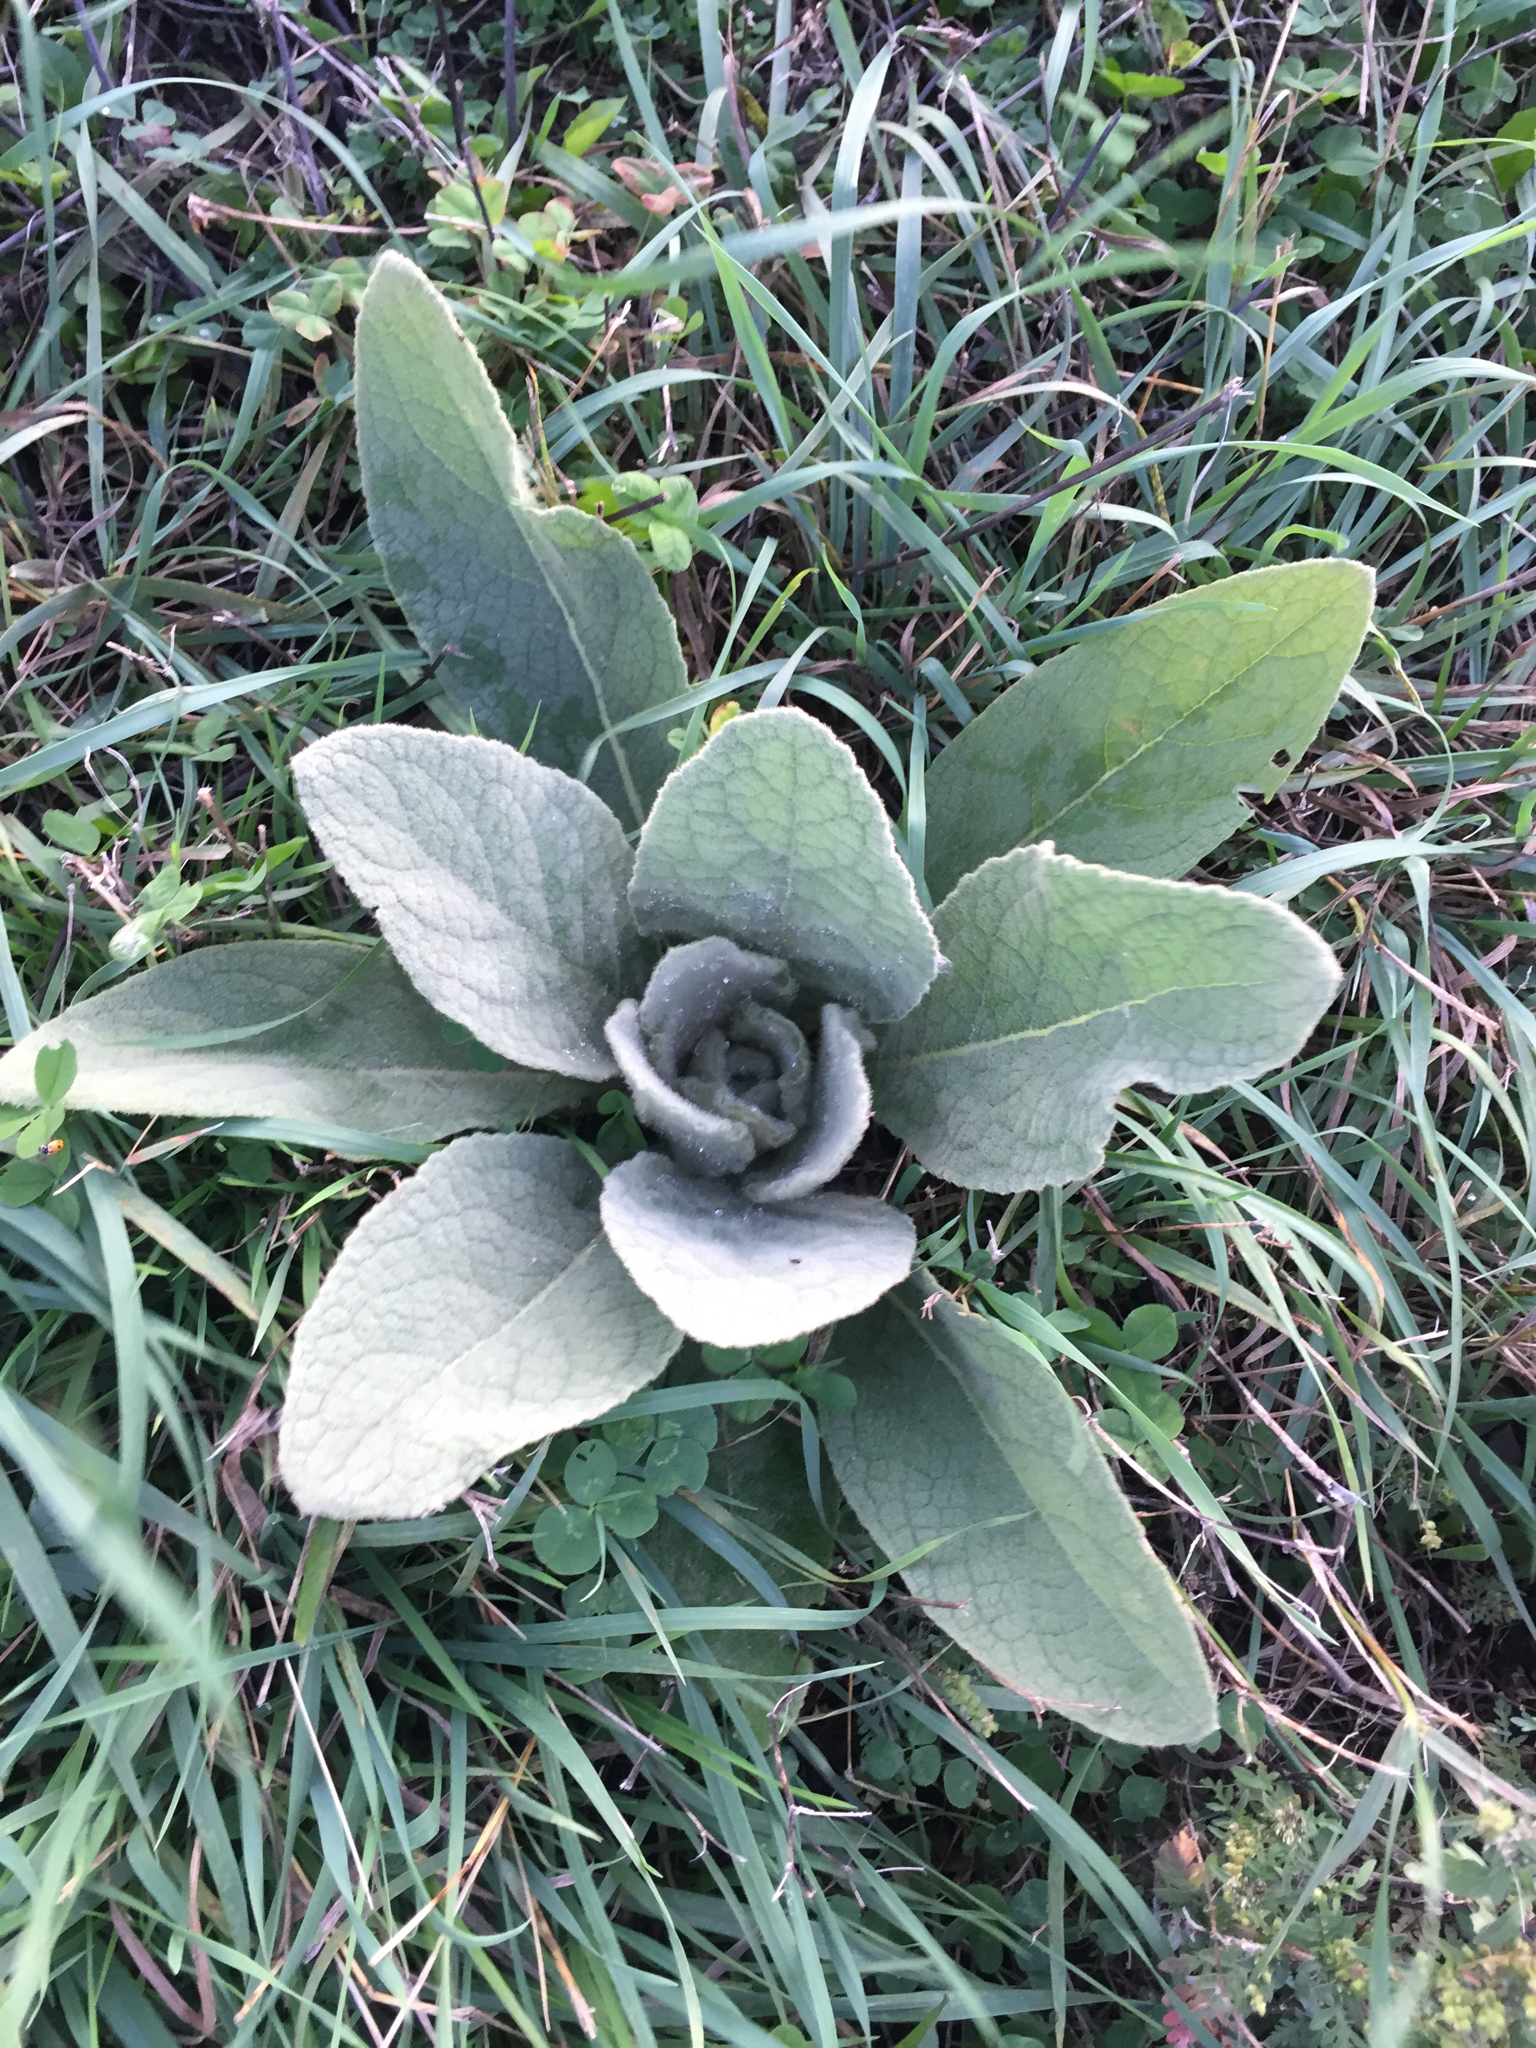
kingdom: Plantae
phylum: Tracheophyta
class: Magnoliopsida
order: Lamiales
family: Scrophulariaceae
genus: Verbascum
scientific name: Verbascum thapsus
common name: Common mullein
